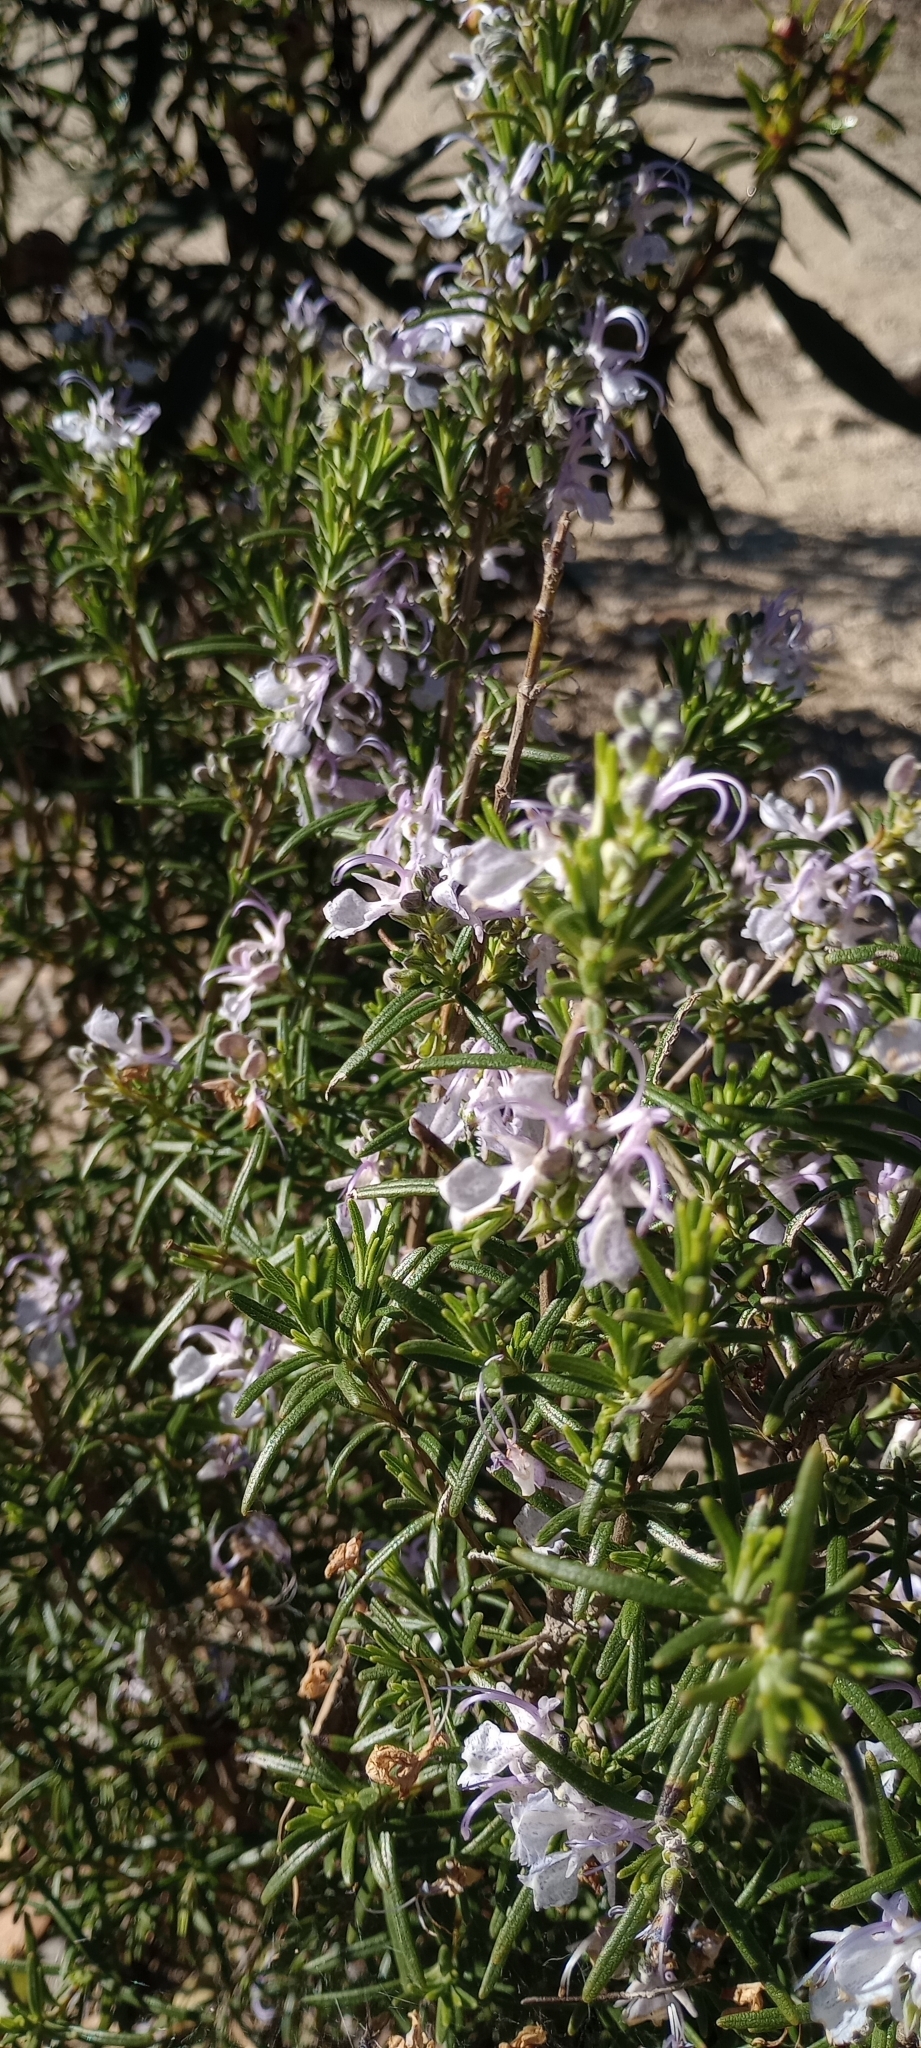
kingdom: Plantae
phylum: Tracheophyta
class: Magnoliopsida
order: Lamiales
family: Lamiaceae
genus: Salvia
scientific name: Salvia rosmarinus
